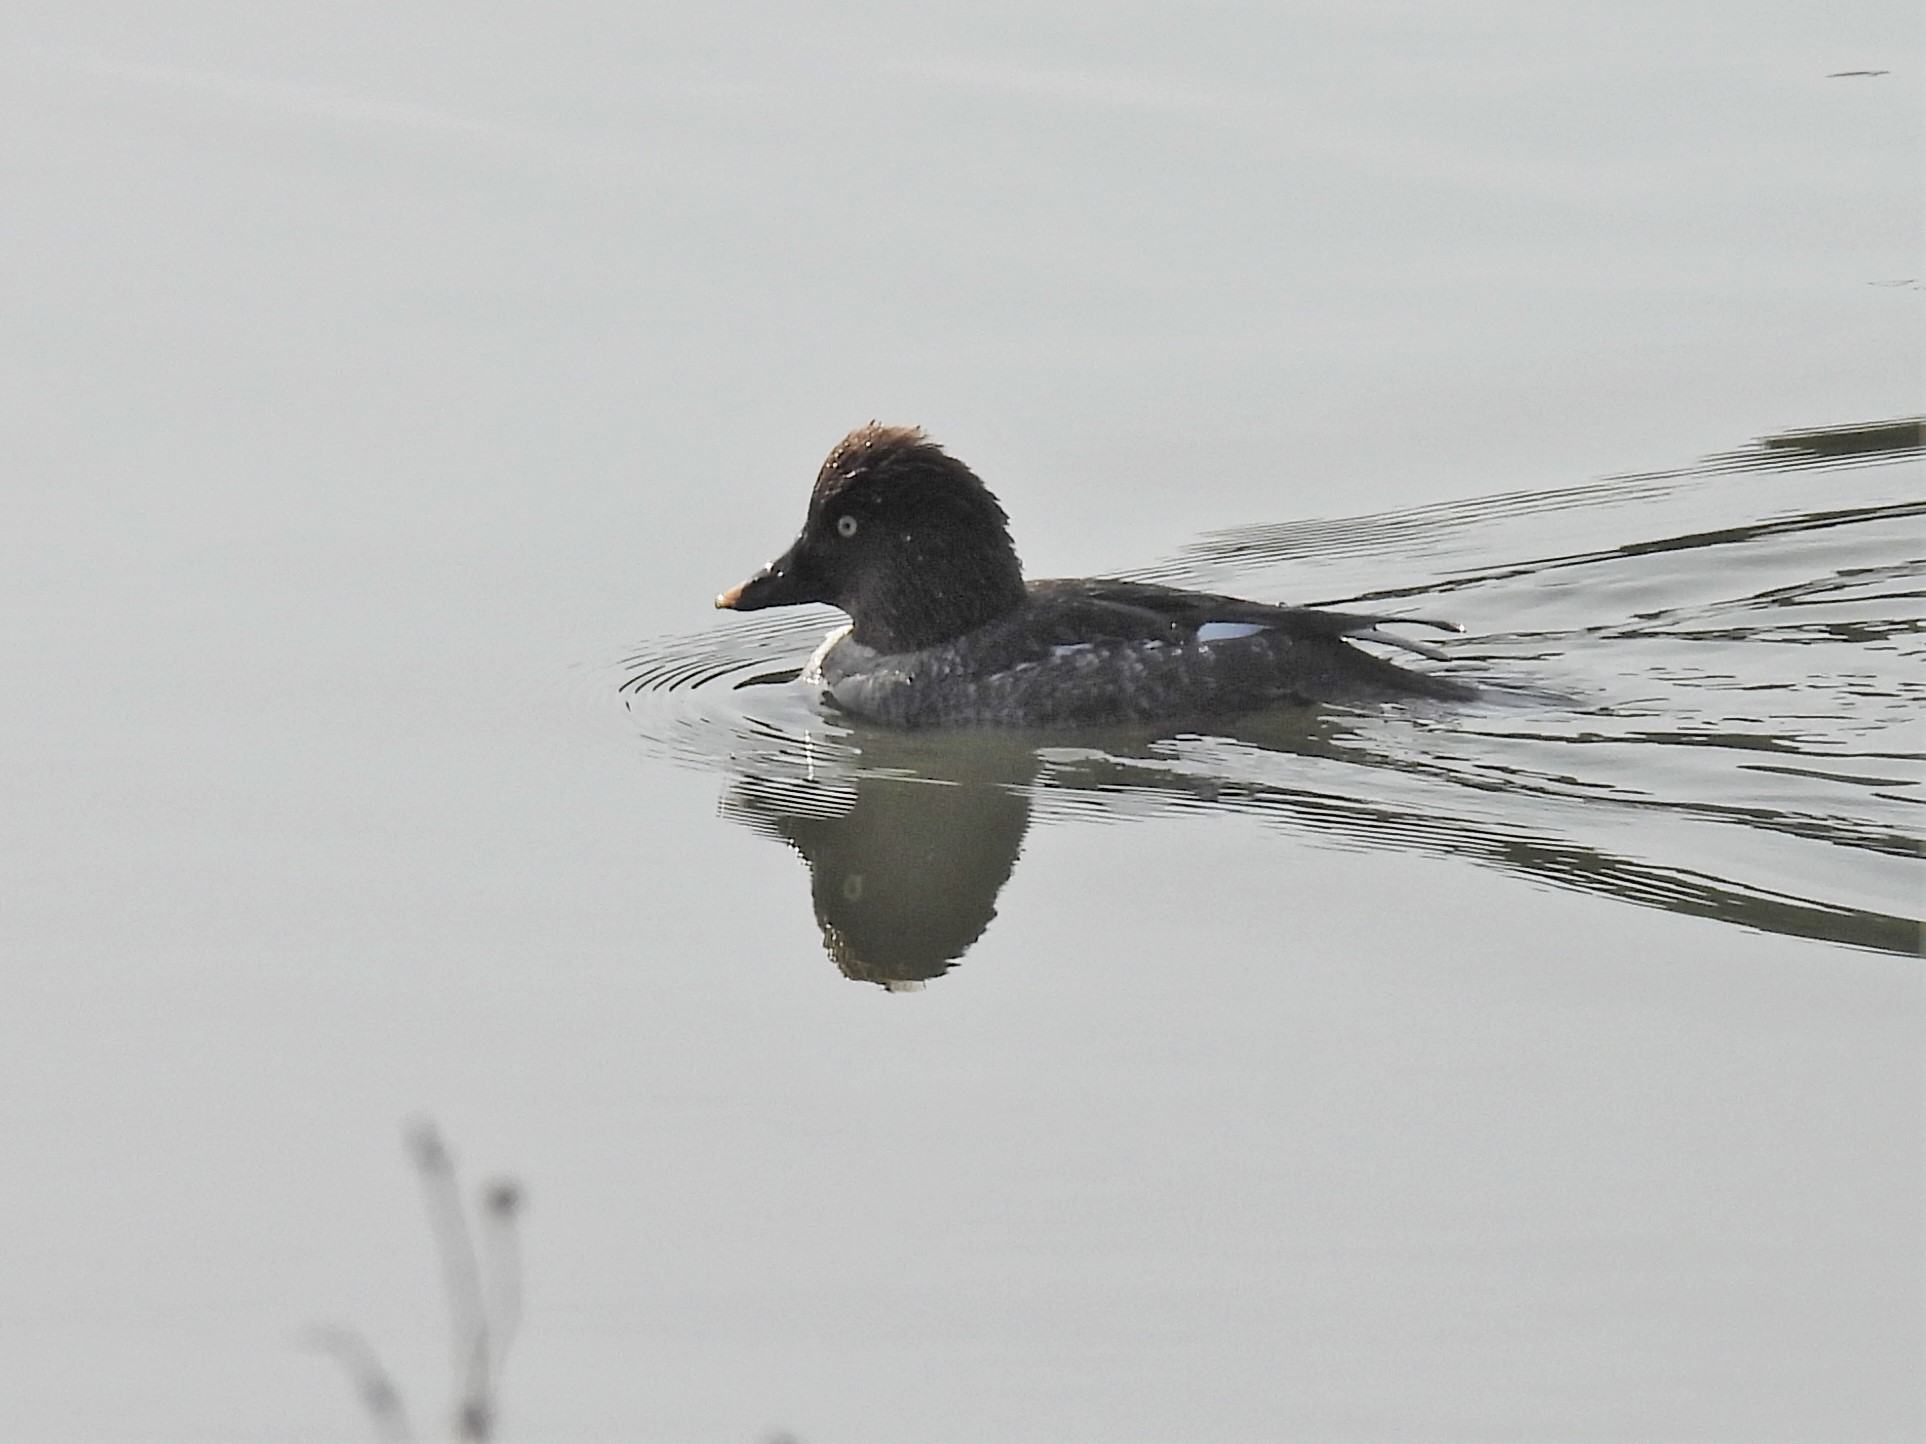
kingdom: Animalia
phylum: Chordata
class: Aves
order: Anseriformes
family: Anatidae
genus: Bucephala
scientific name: Bucephala clangula
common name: Common goldeneye
